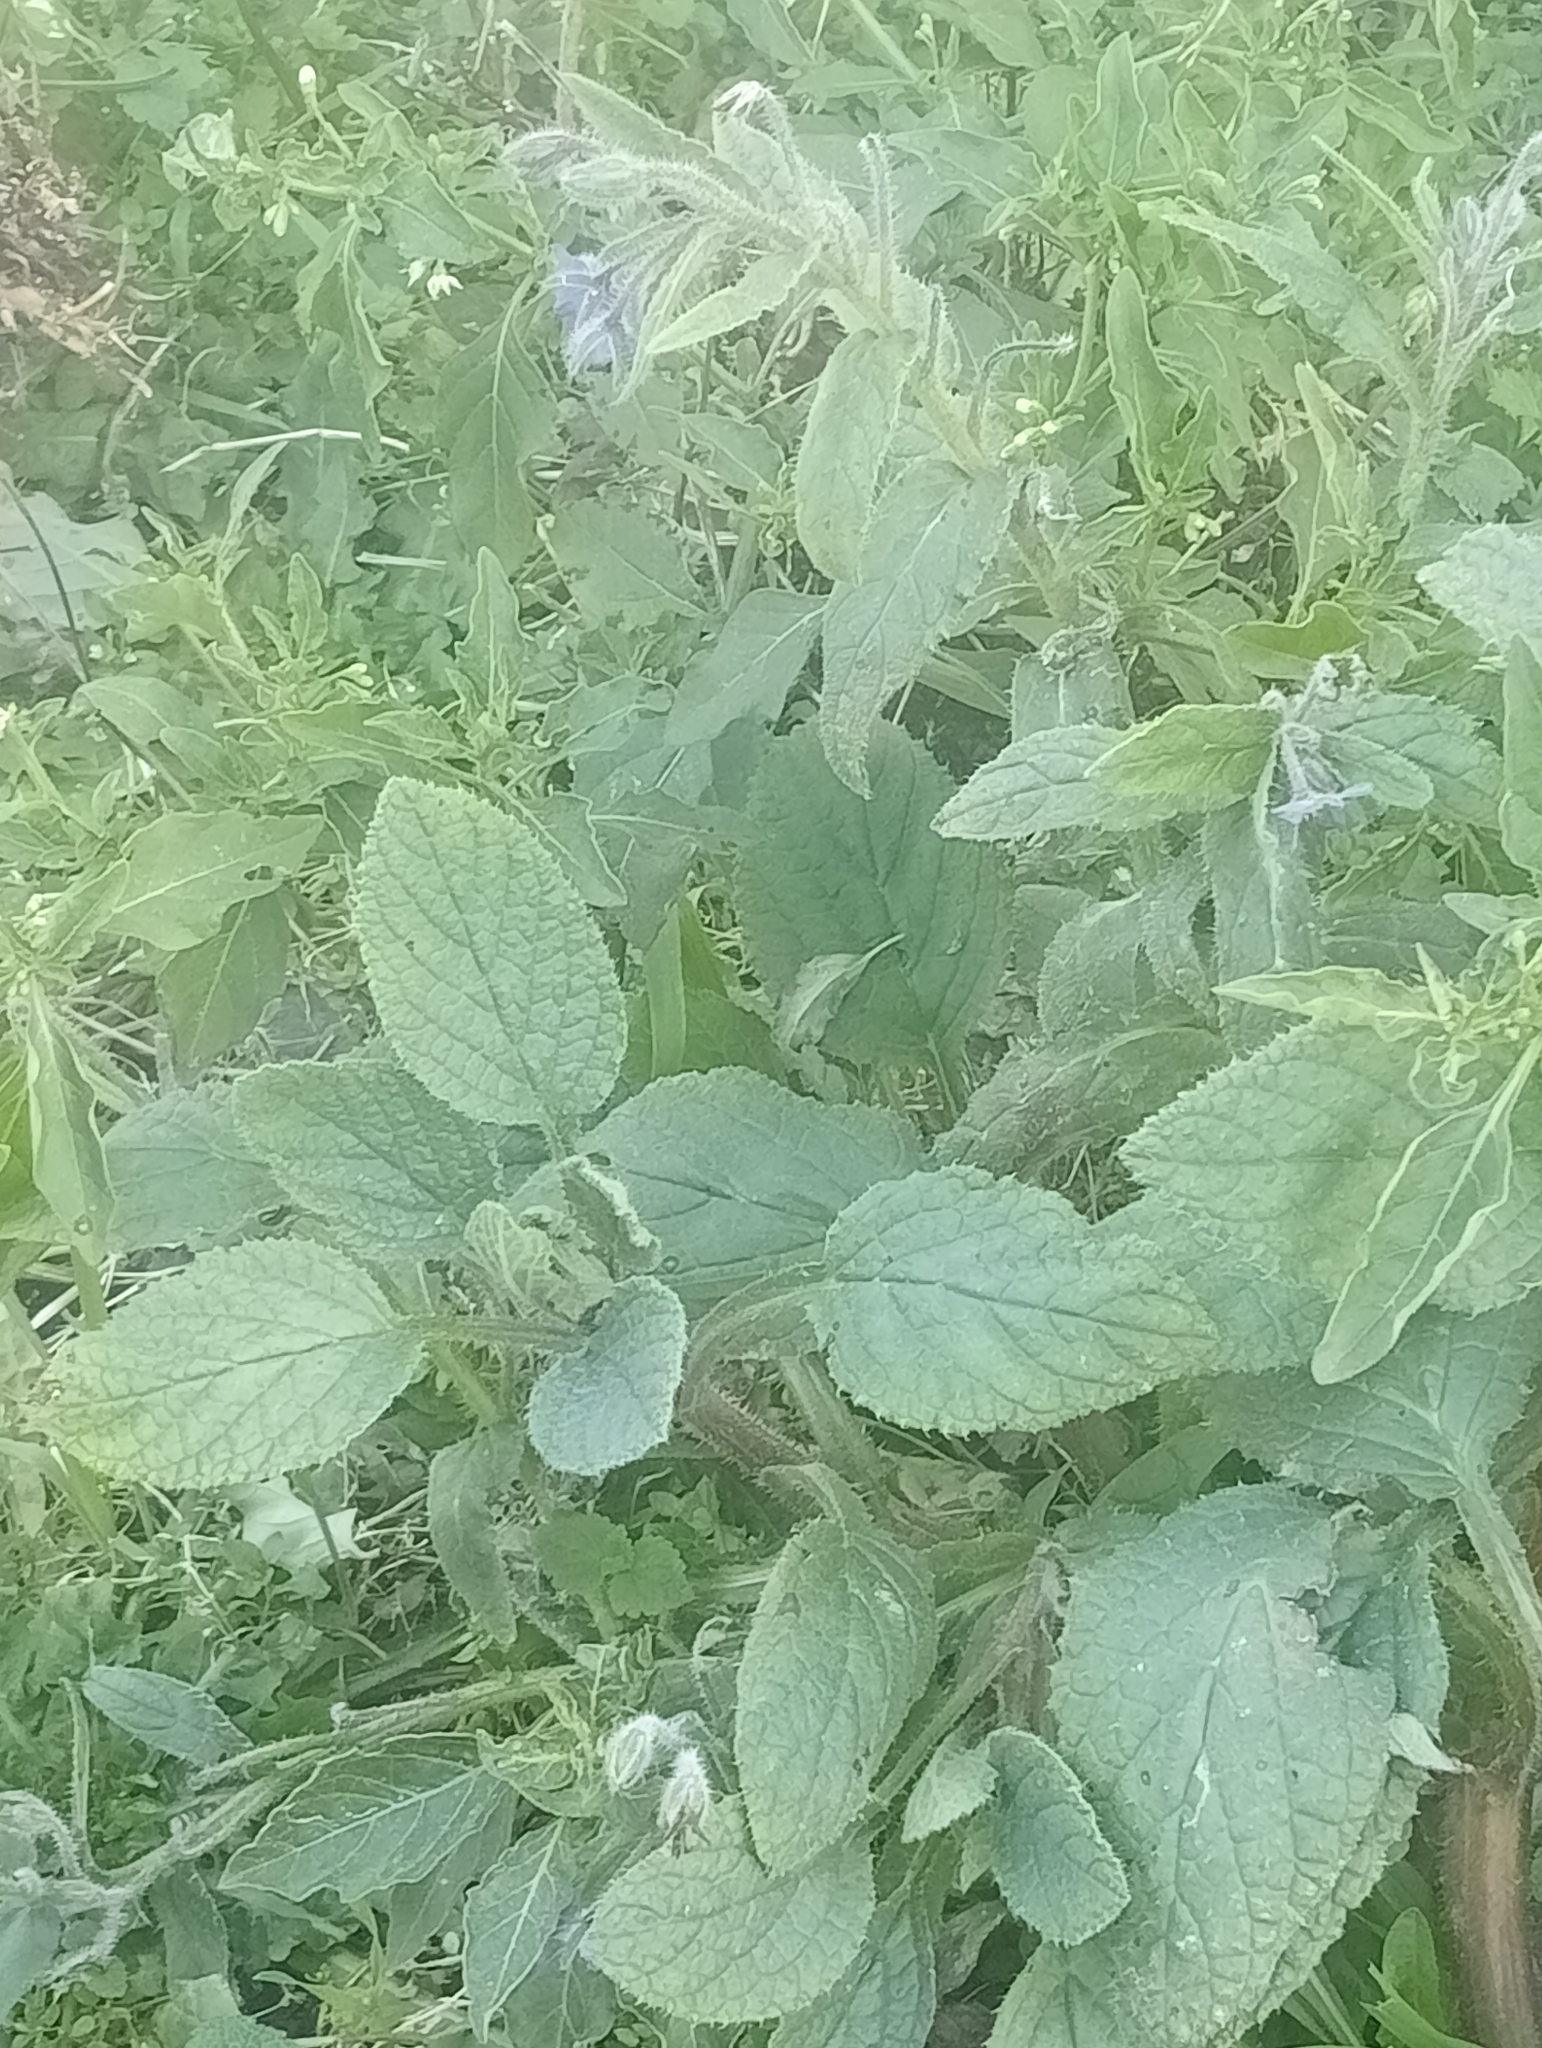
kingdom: Plantae
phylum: Tracheophyta
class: Magnoliopsida
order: Boraginales
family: Boraginaceae
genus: Borago
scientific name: Borago officinalis
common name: Borage
